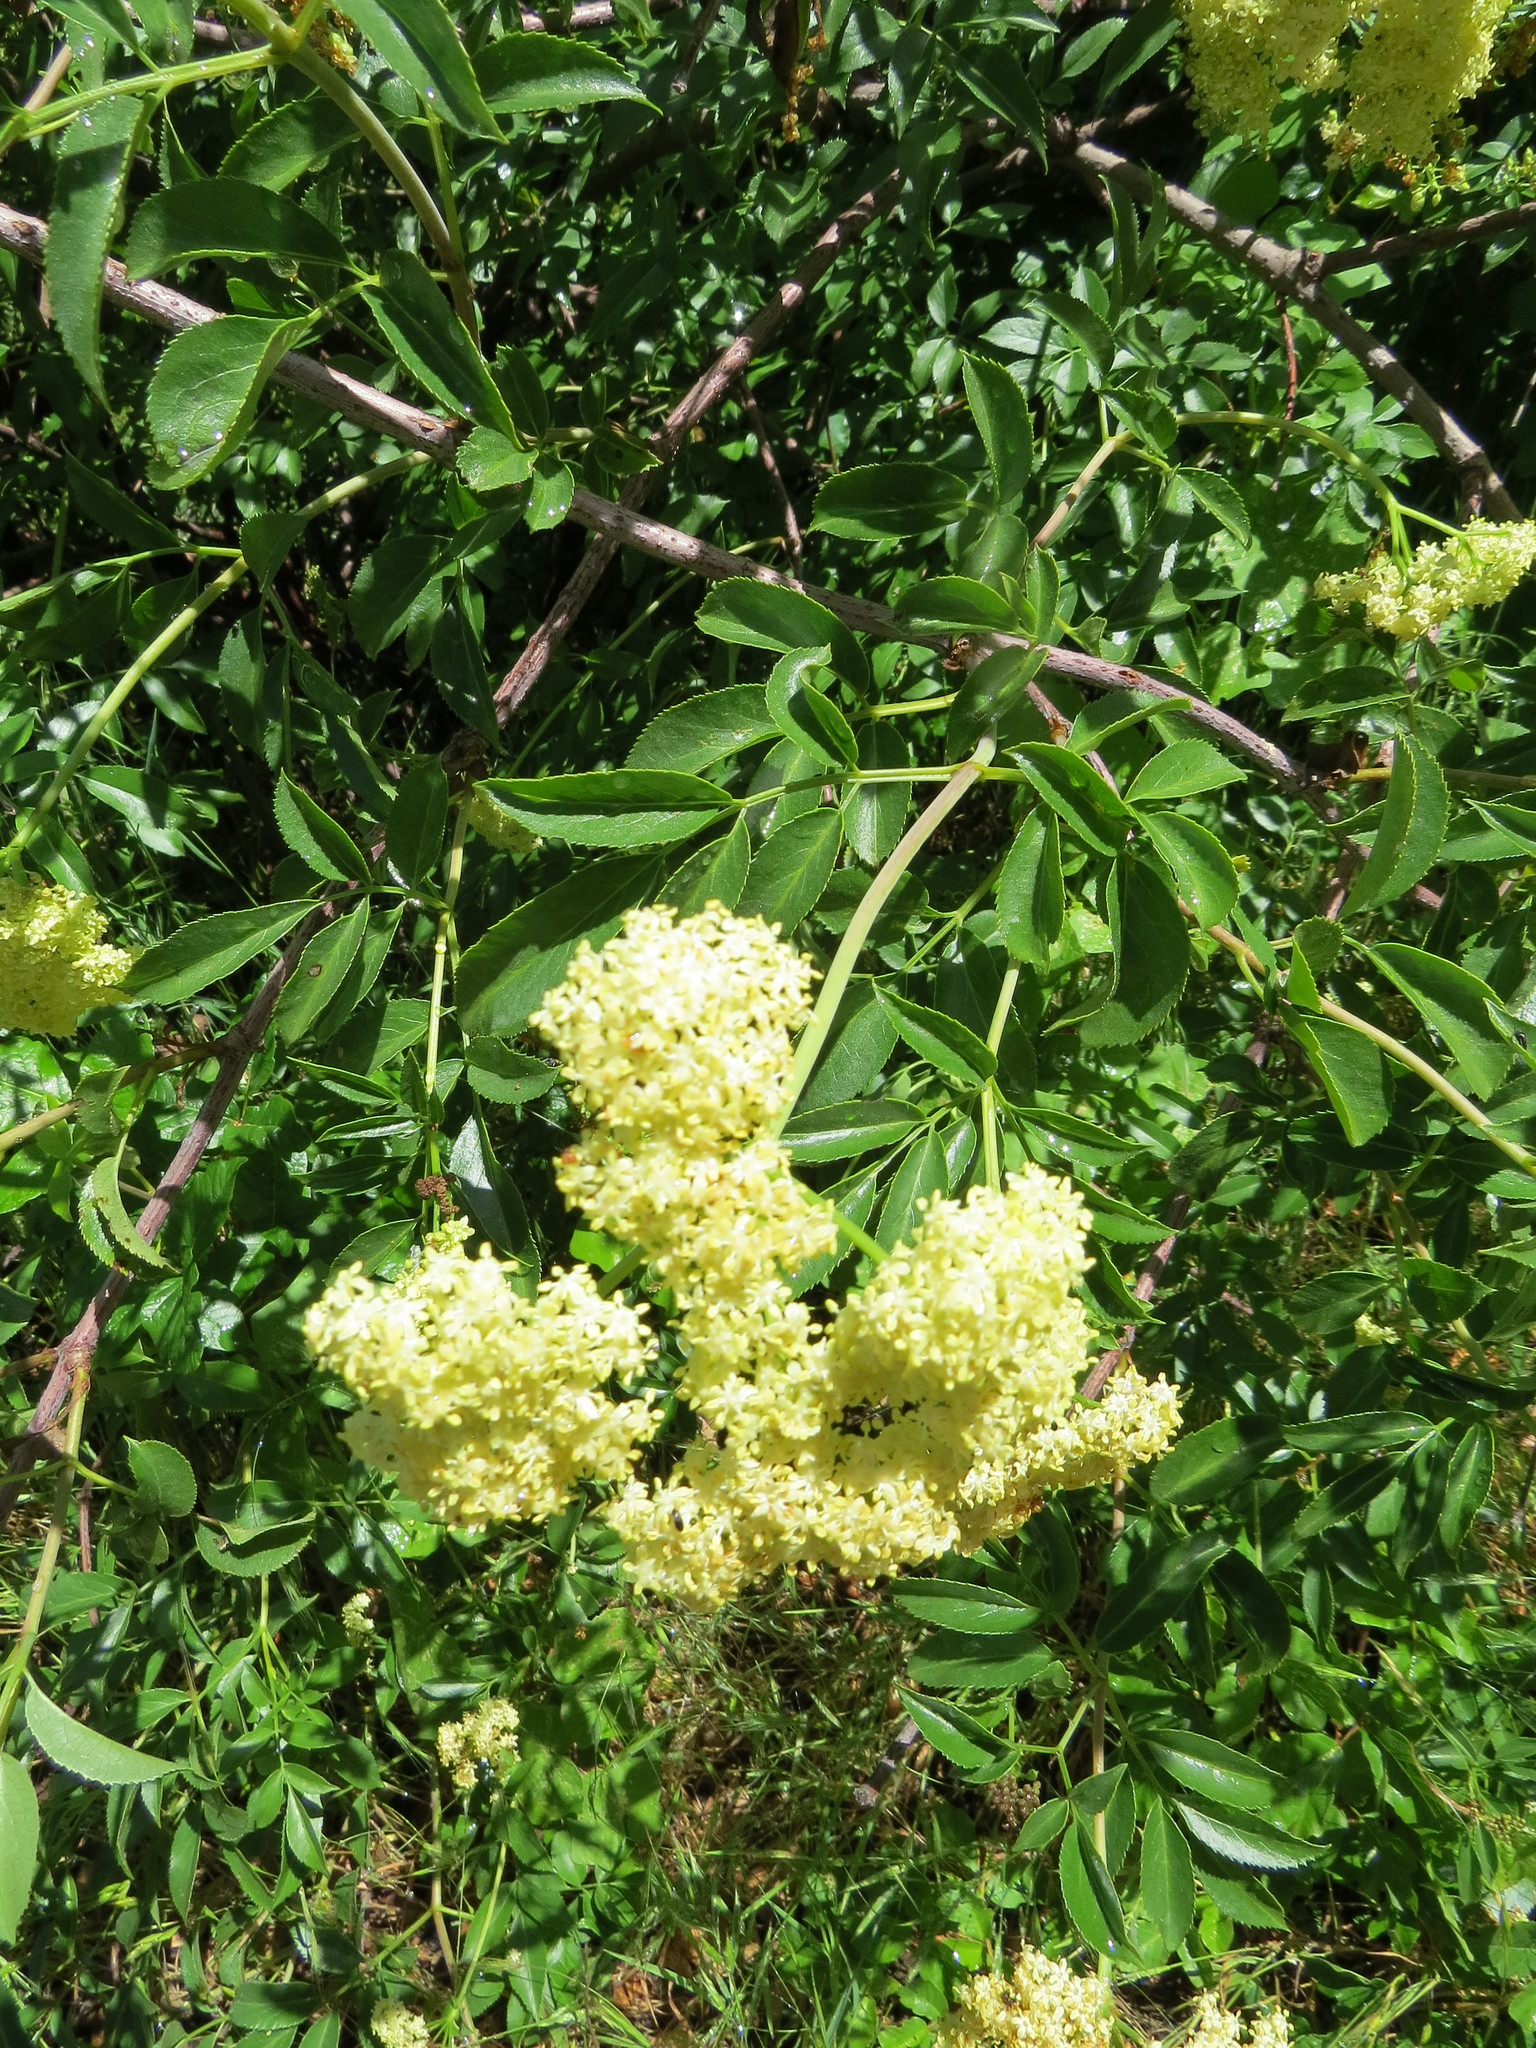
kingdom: Plantae
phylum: Tracheophyta
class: Magnoliopsida
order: Dipsacales
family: Viburnaceae
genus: Sambucus
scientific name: Sambucus cerulea
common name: Blue elder
